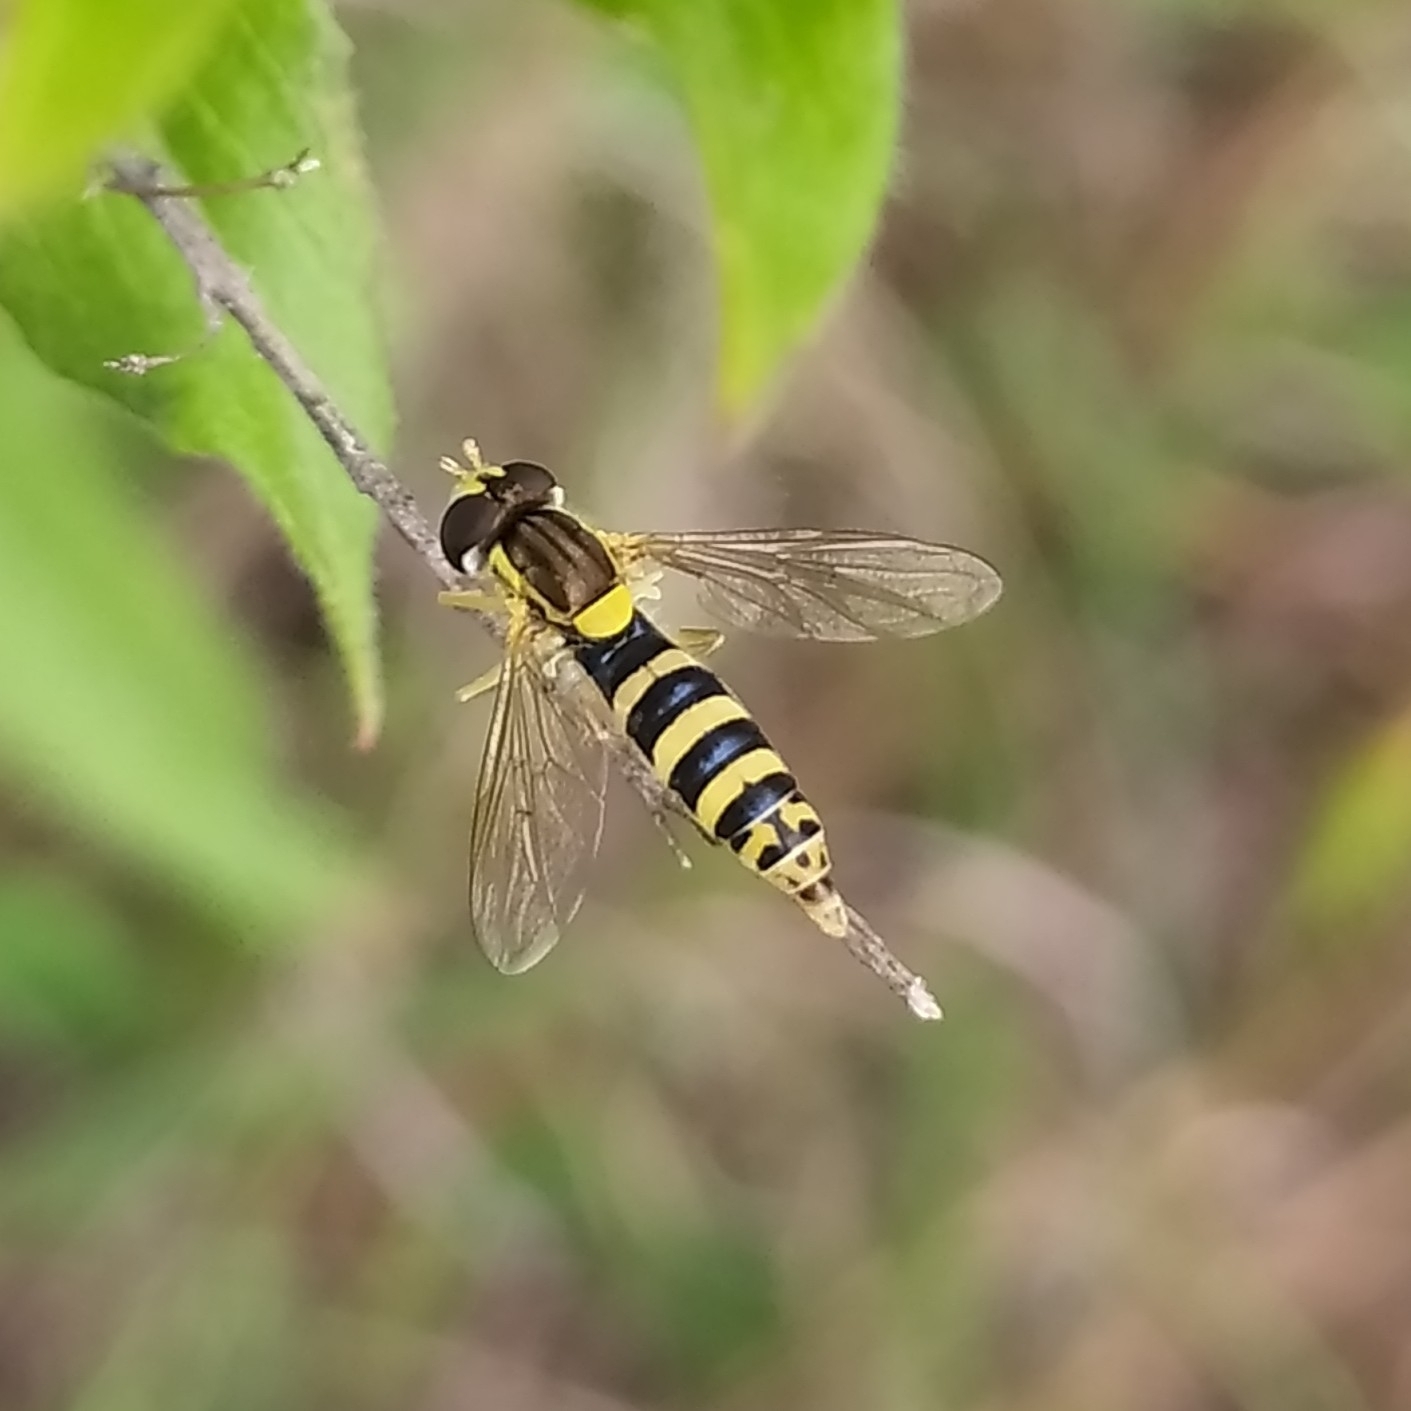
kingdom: Animalia
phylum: Arthropoda
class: Insecta
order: Diptera
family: Syrphidae
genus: Sphaerophoria
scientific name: Sphaerophoria
